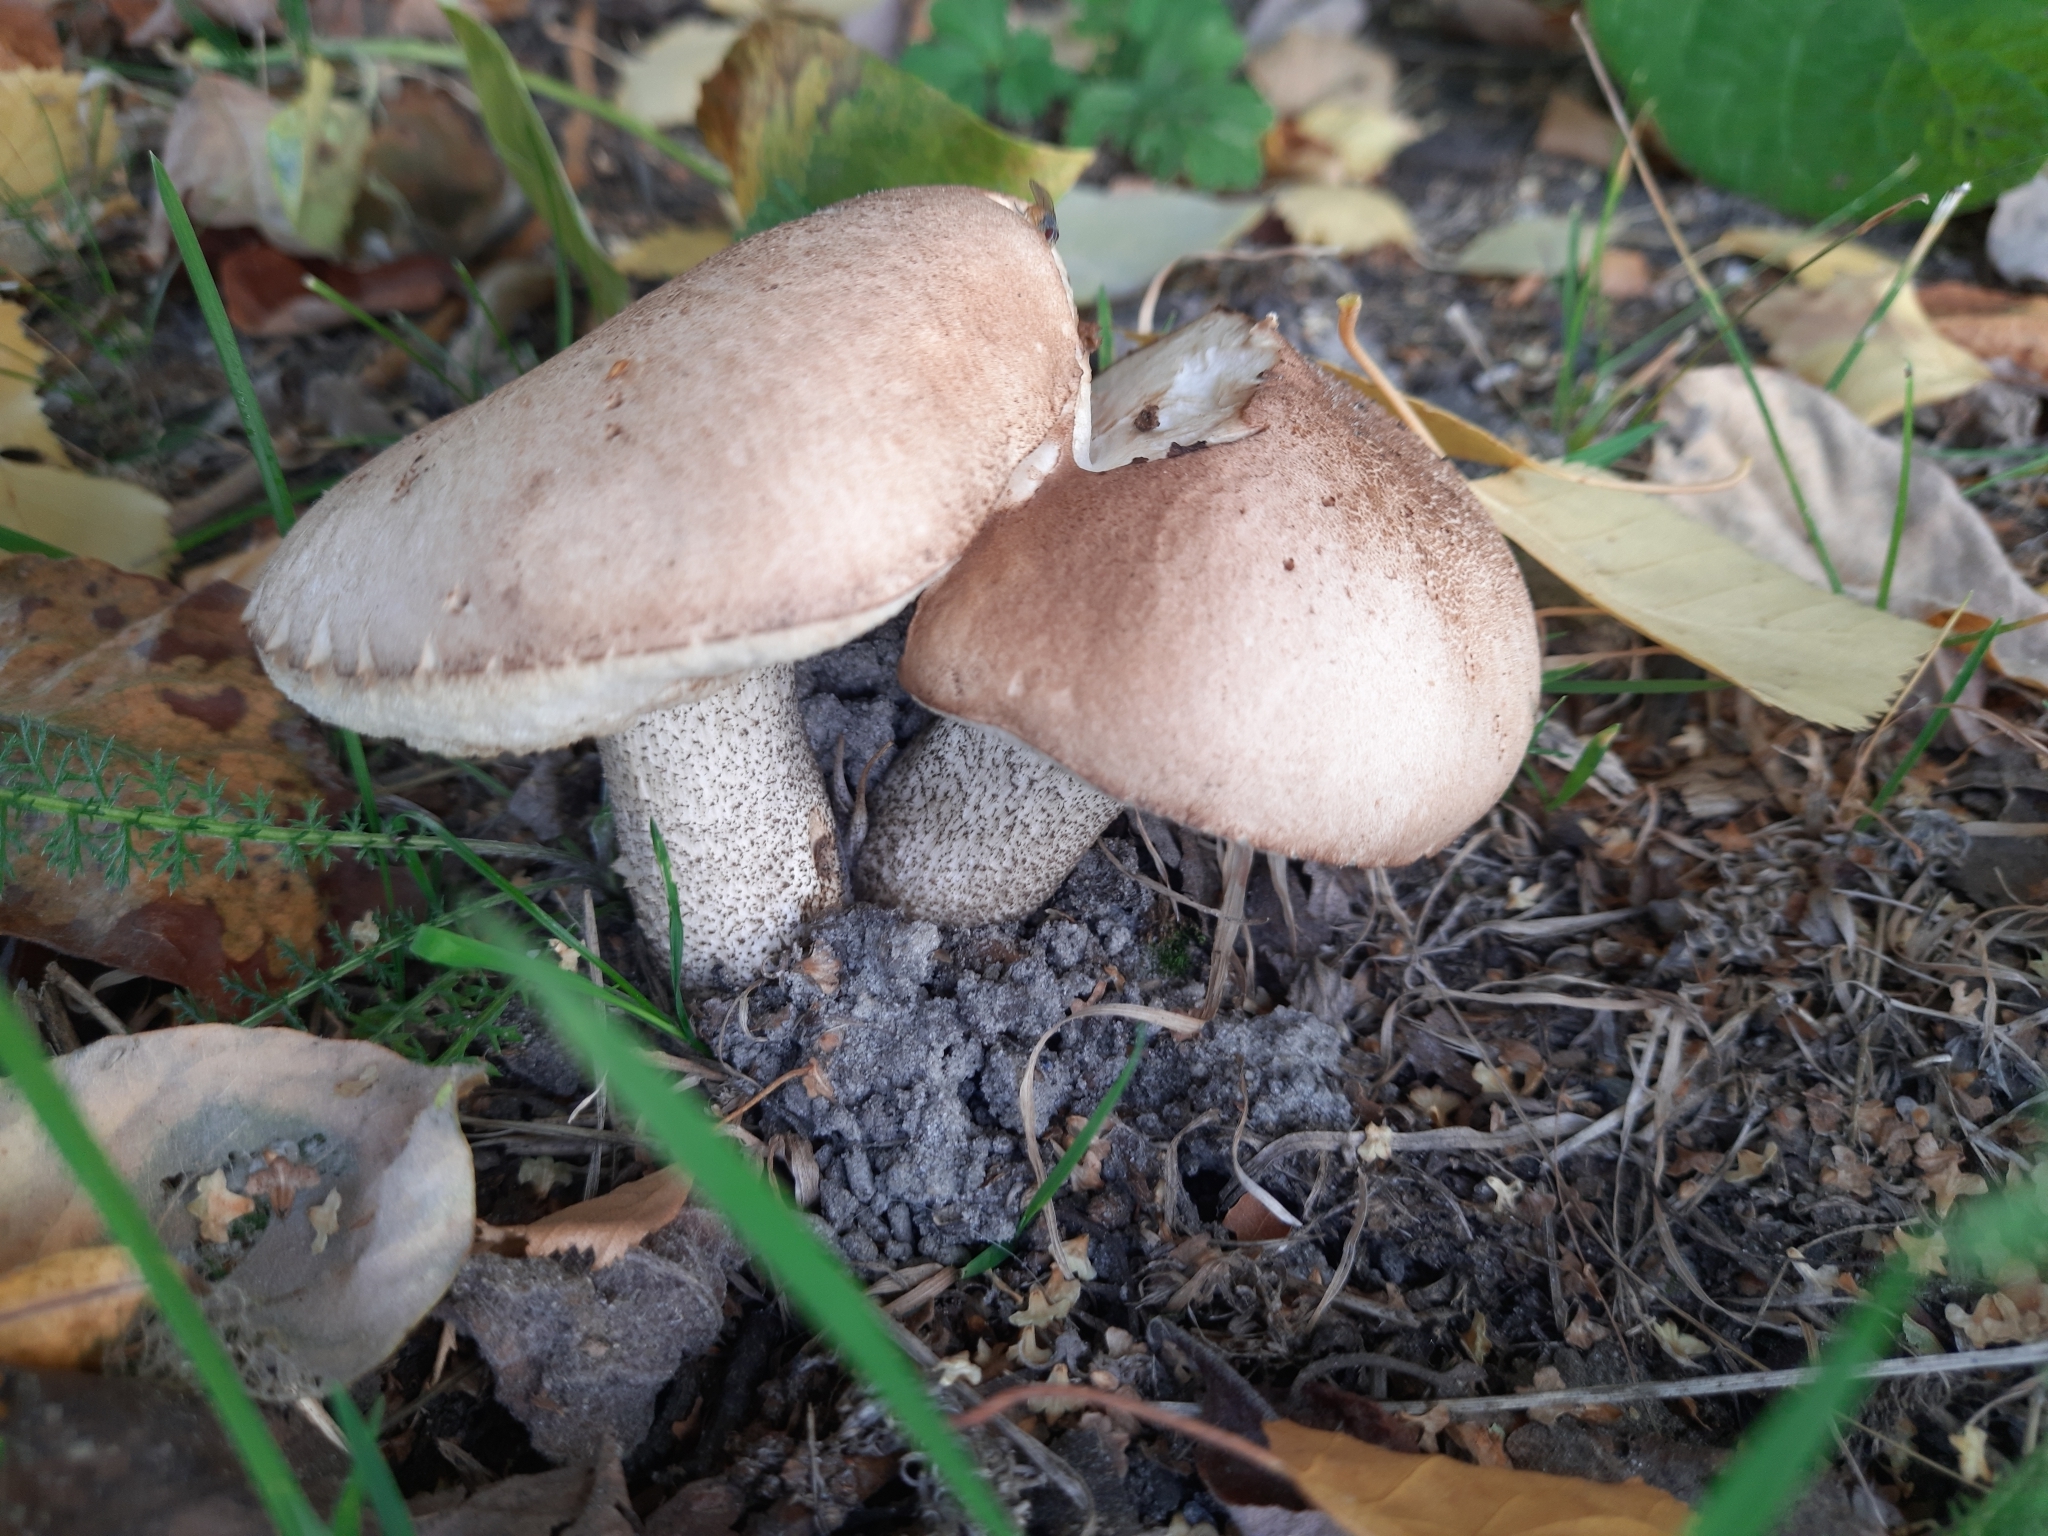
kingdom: Fungi
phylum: Basidiomycota
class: Agaricomycetes
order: Boletales
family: Boletaceae
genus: Leccinum
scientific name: Leccinum scabrum
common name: Blushing bolete
